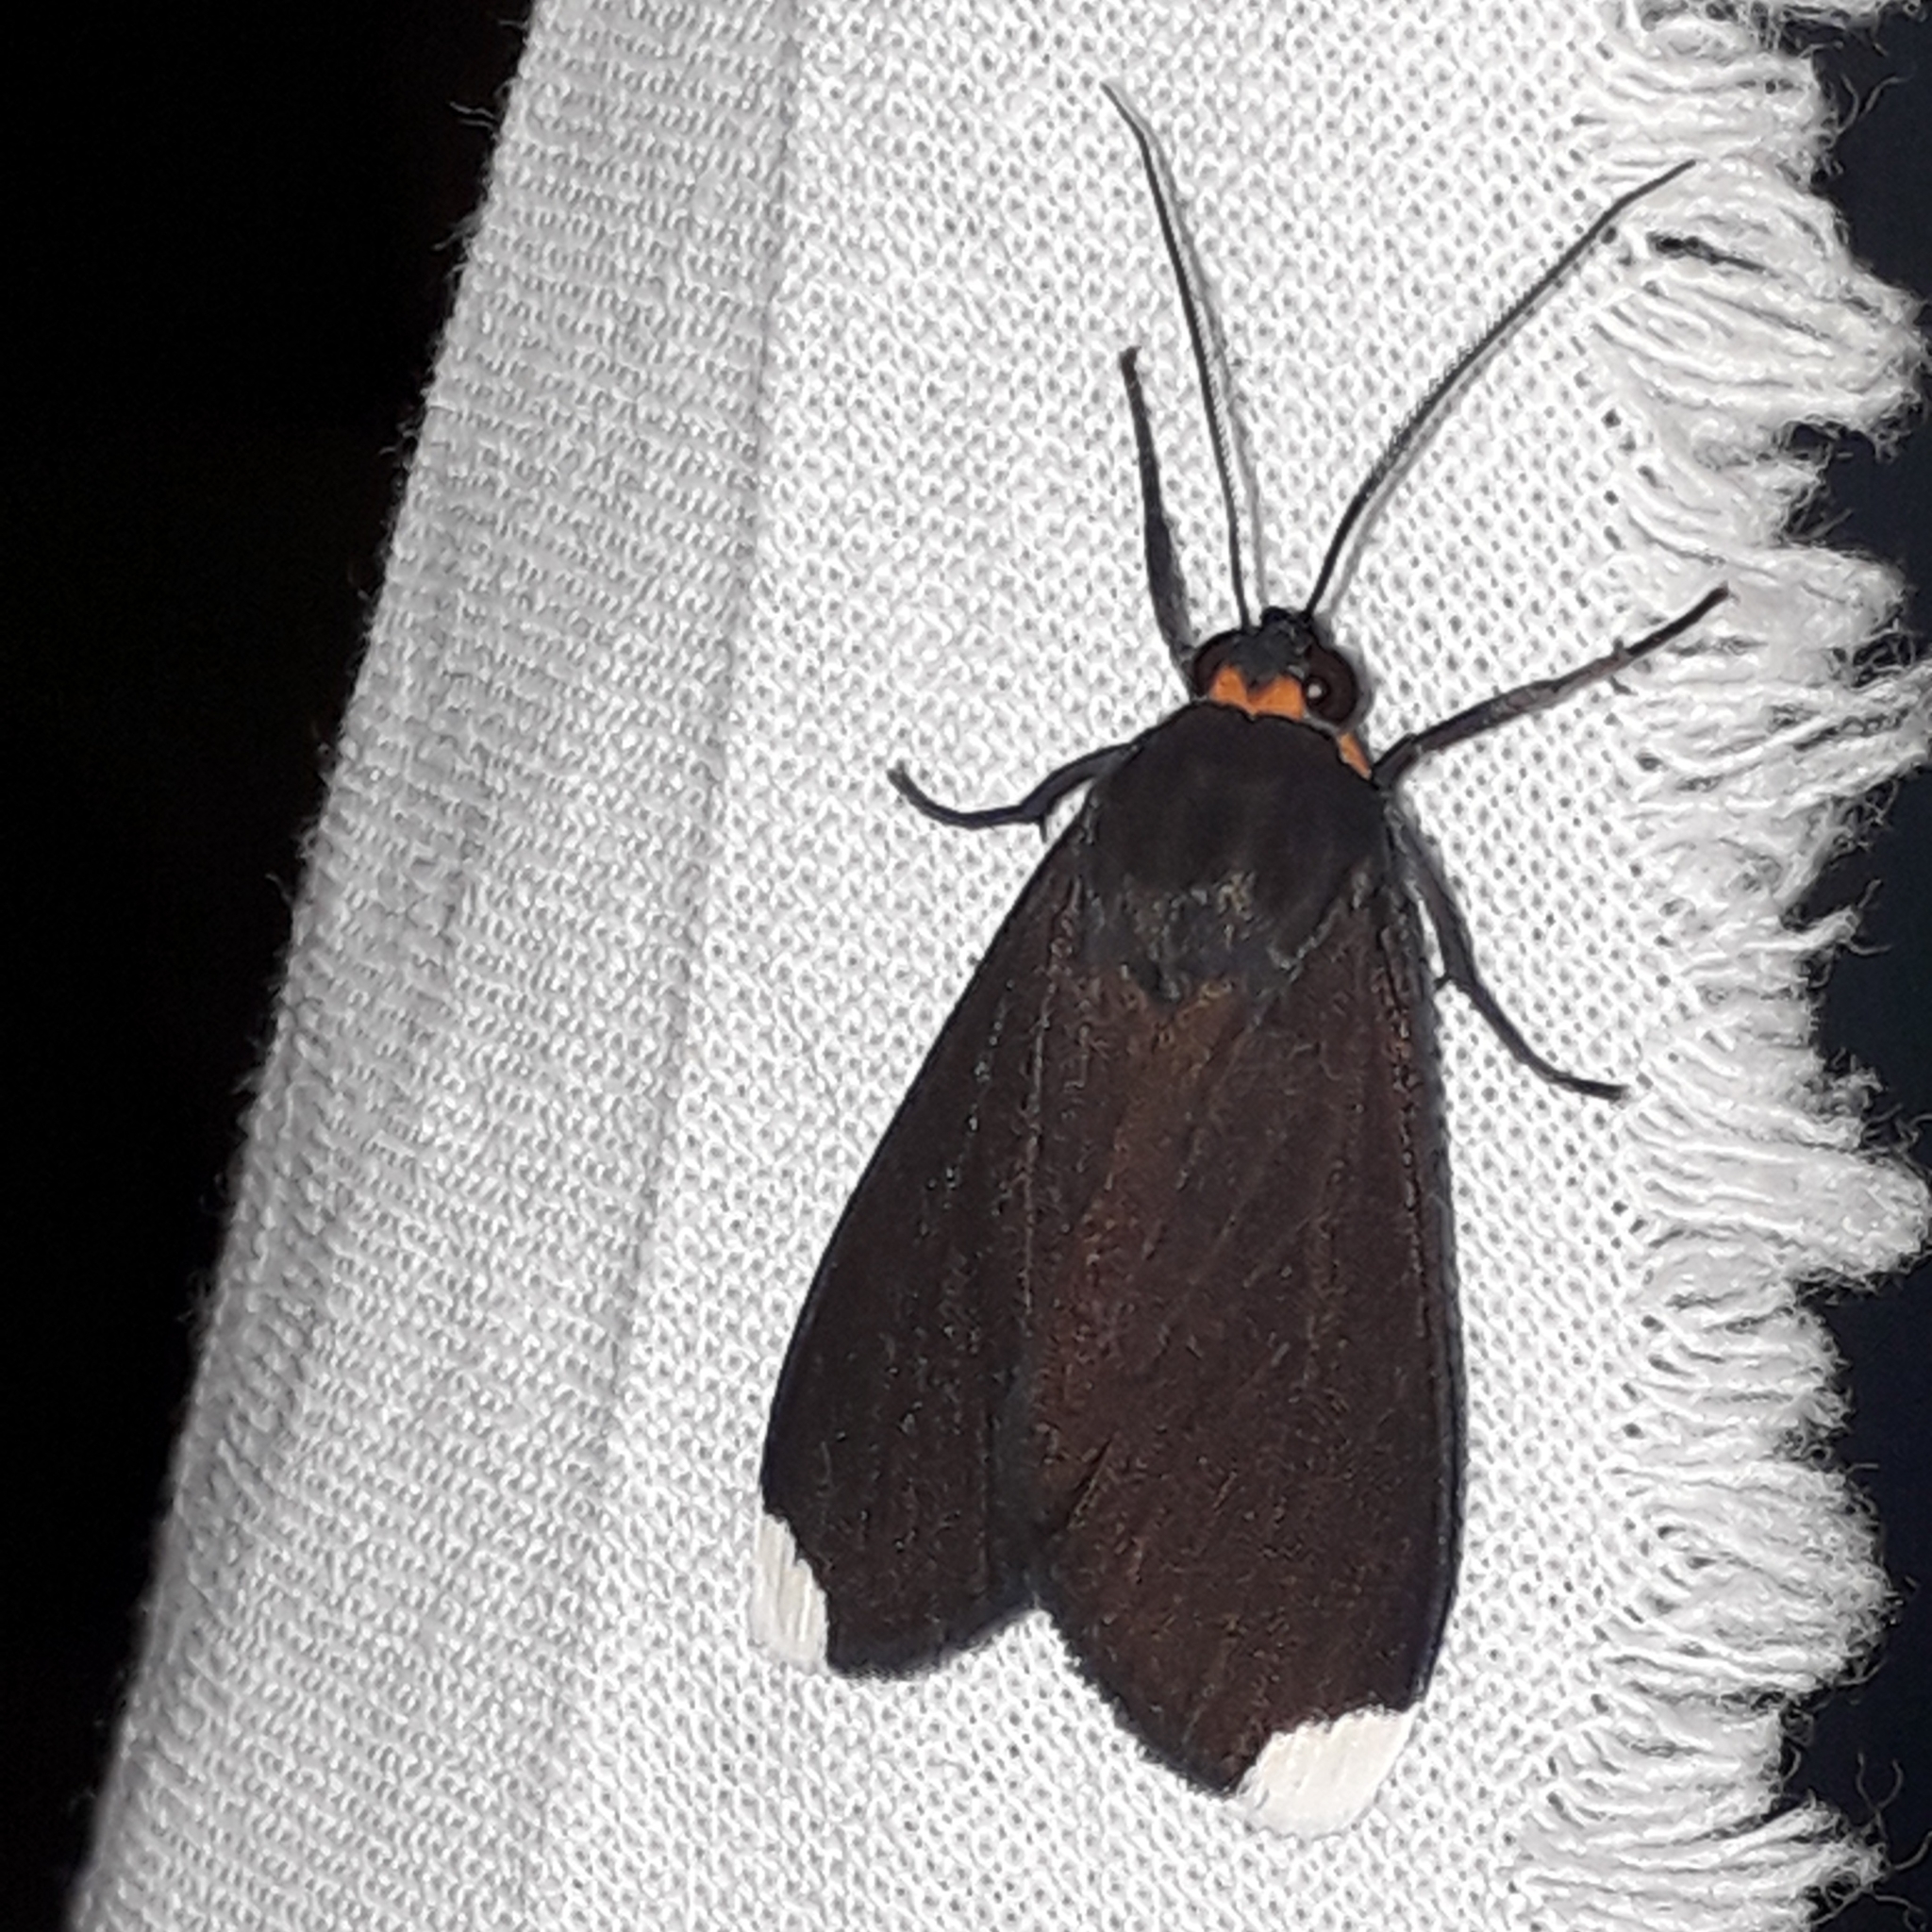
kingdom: Animalia
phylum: Arthropoda
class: Insecta
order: Lepidoptera
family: Erebidae
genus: Episcepsis
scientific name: Episcepsis dominicensis
